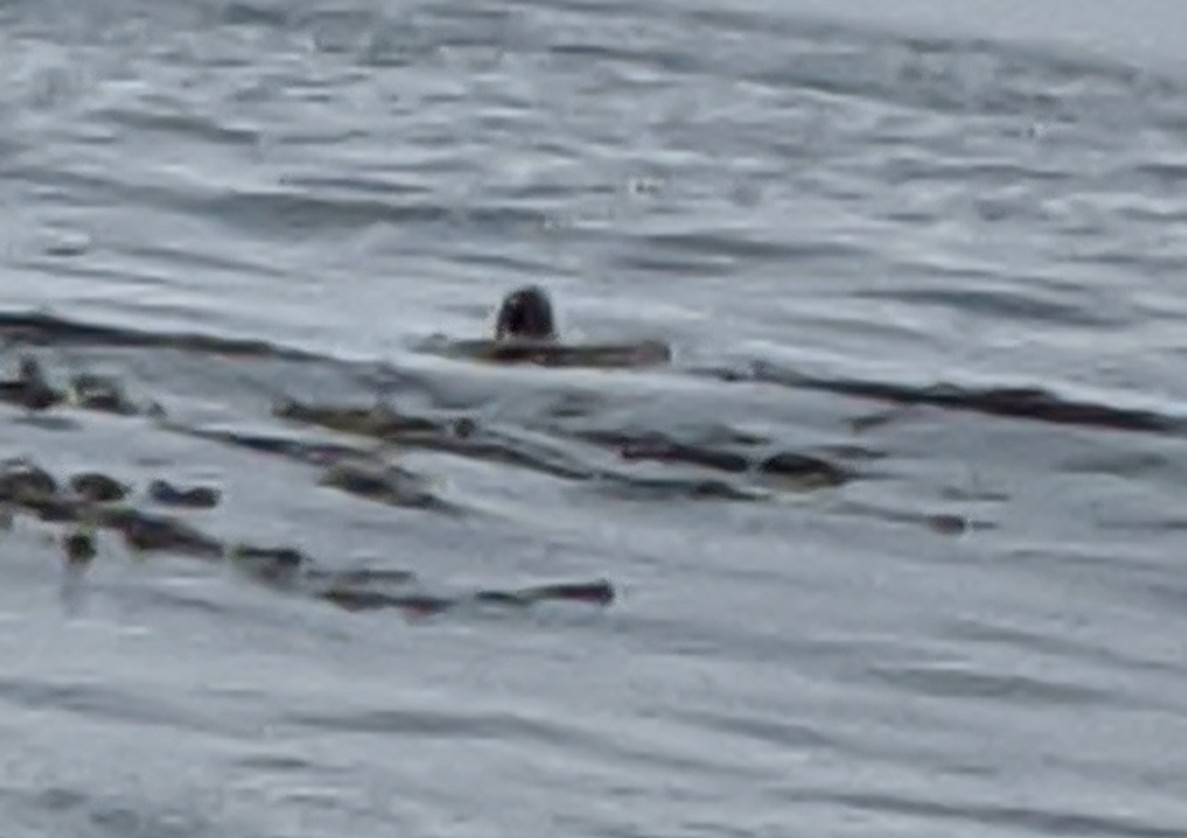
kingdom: Animalia
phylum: Chordata
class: Mammalia
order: Carnivora
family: Mustelidae
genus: Enhydra
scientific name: Enhydra lutris
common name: Sea otter
